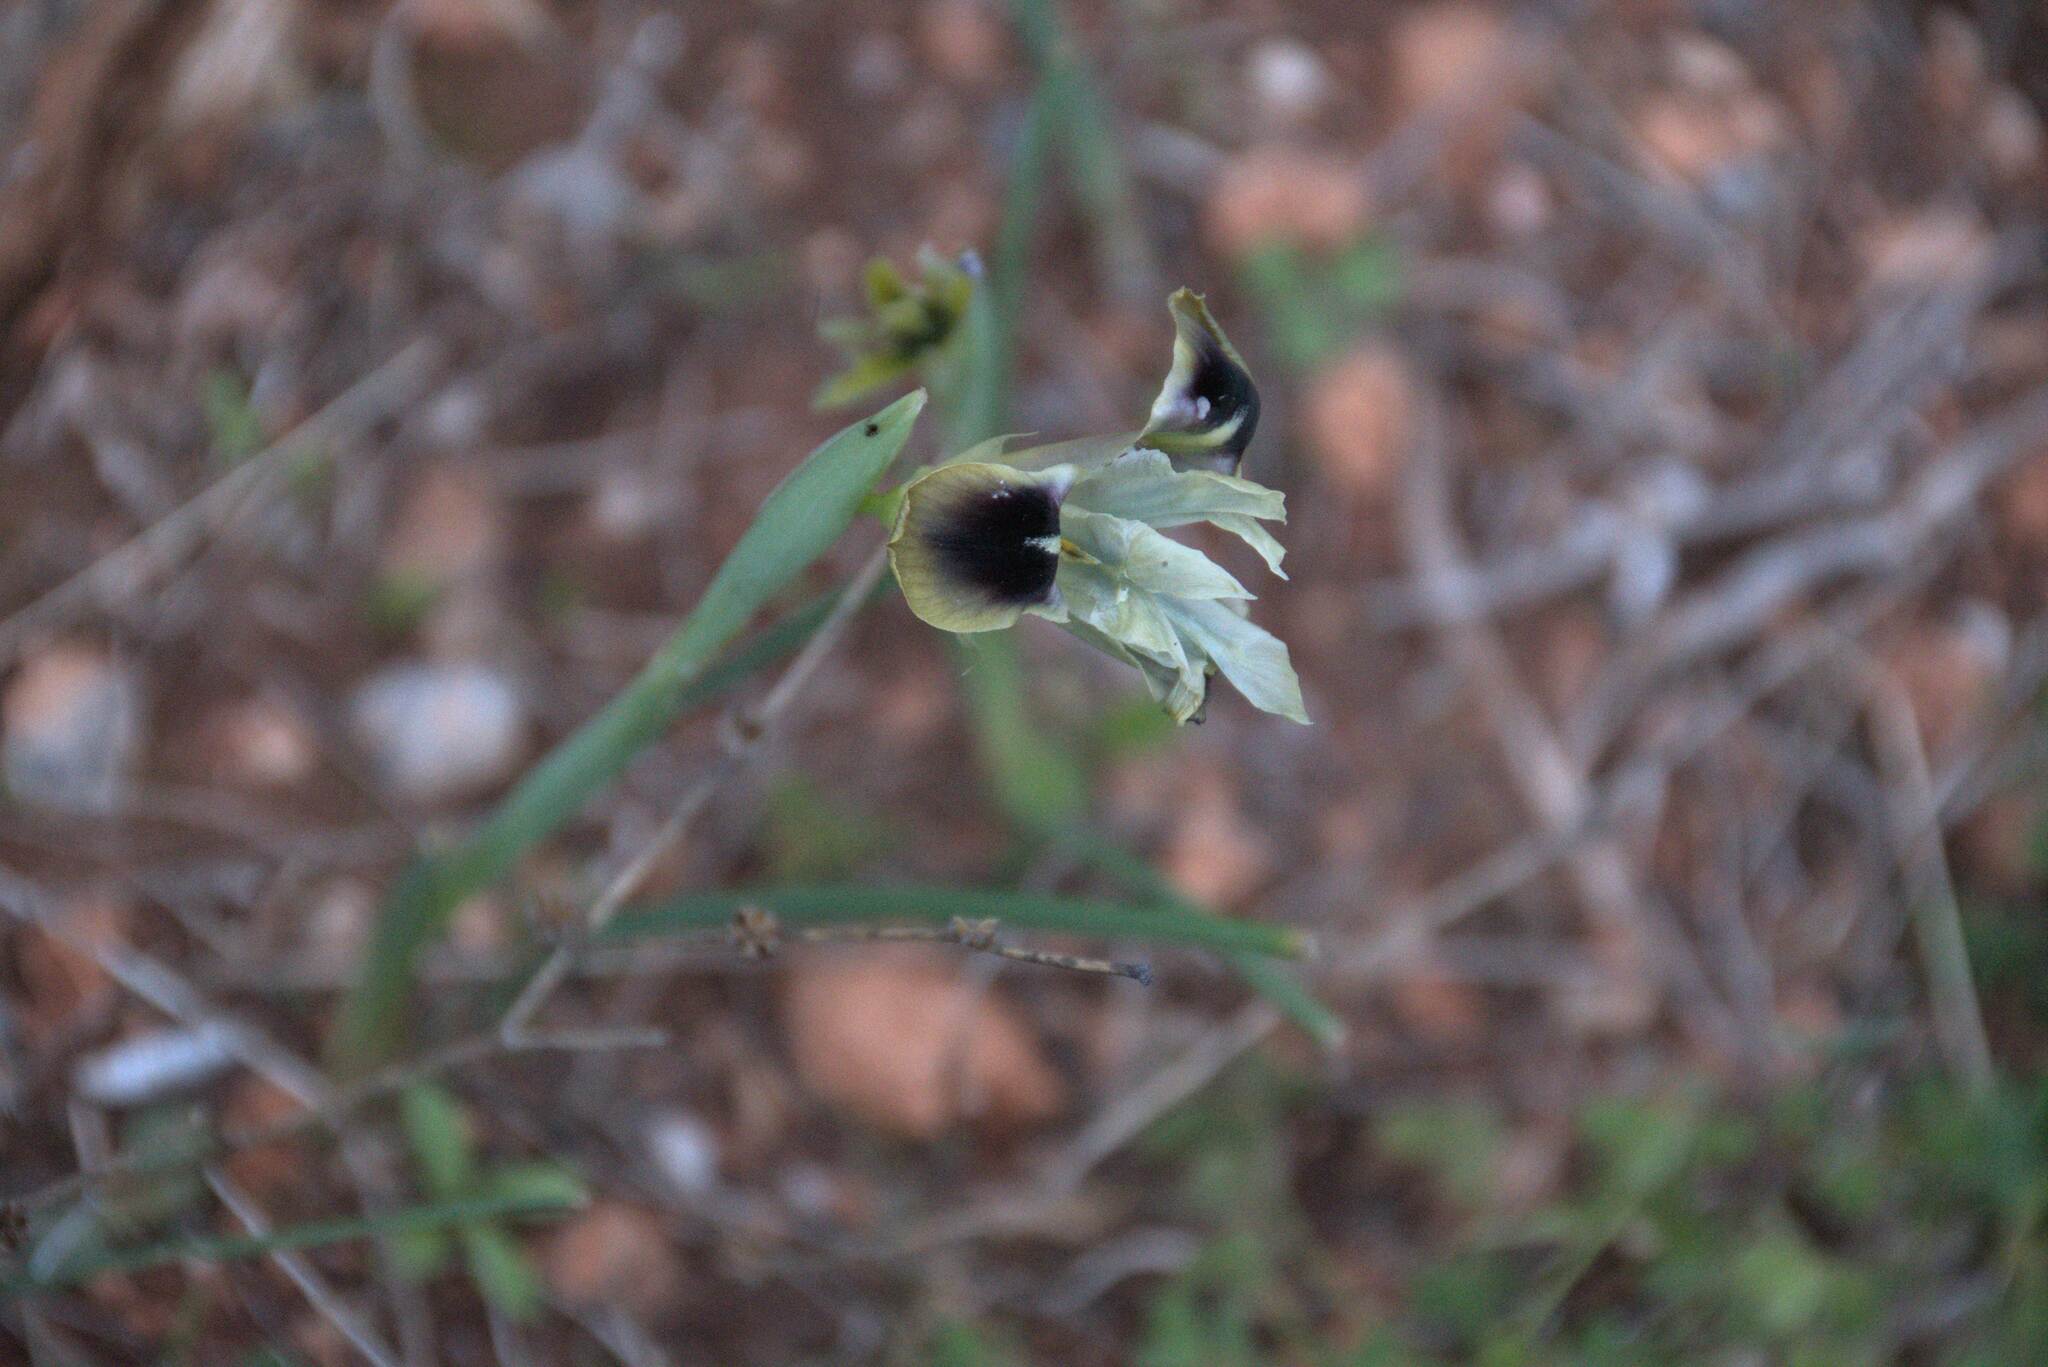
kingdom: Plantae
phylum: Tracheophyta
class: Liliopsida
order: Asparagales
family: Iridaceae
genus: Iris
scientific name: Iris tuberosa
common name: Snake's-head iris
